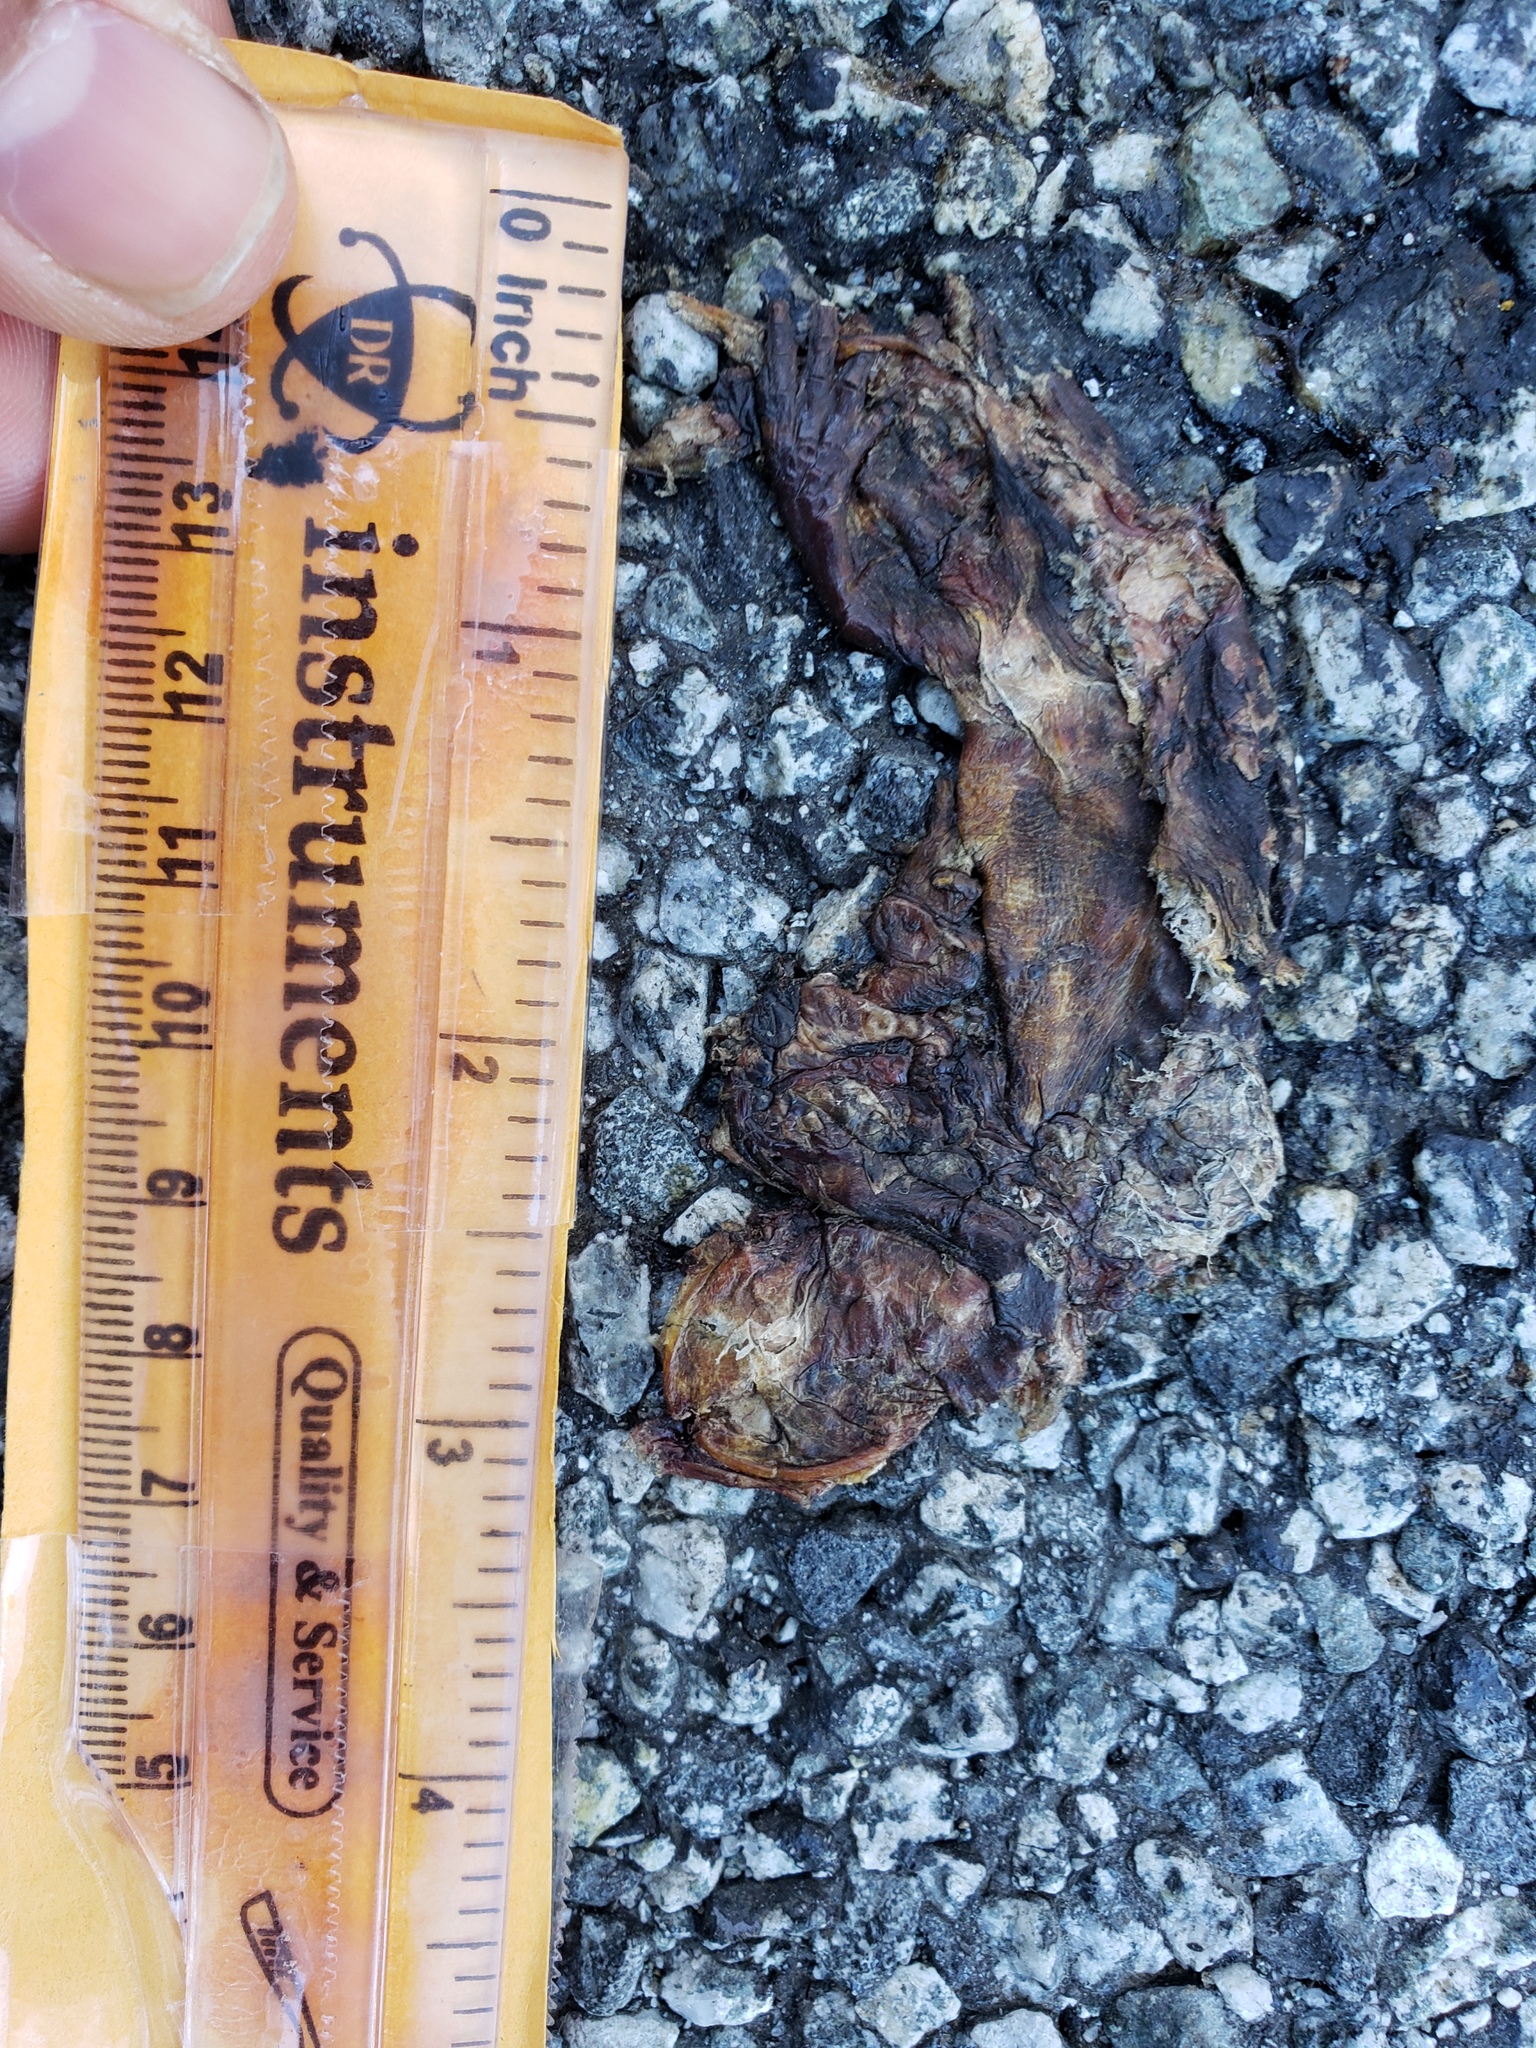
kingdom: Animalia
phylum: Chordata
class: Amphibia
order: Caudata
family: Salamandridae
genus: Taricha
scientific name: Taricha
